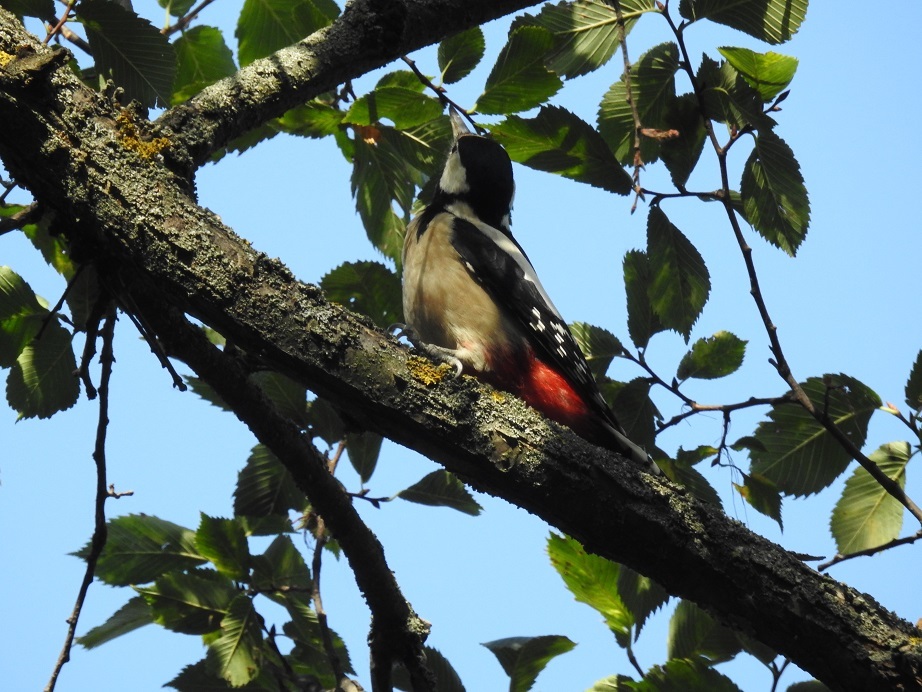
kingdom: Animalia
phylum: Chordata
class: Aves
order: Piciformes
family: Picidae
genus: Dendrocopos
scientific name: Dendrocopos major
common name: Great spotted woodpecker
